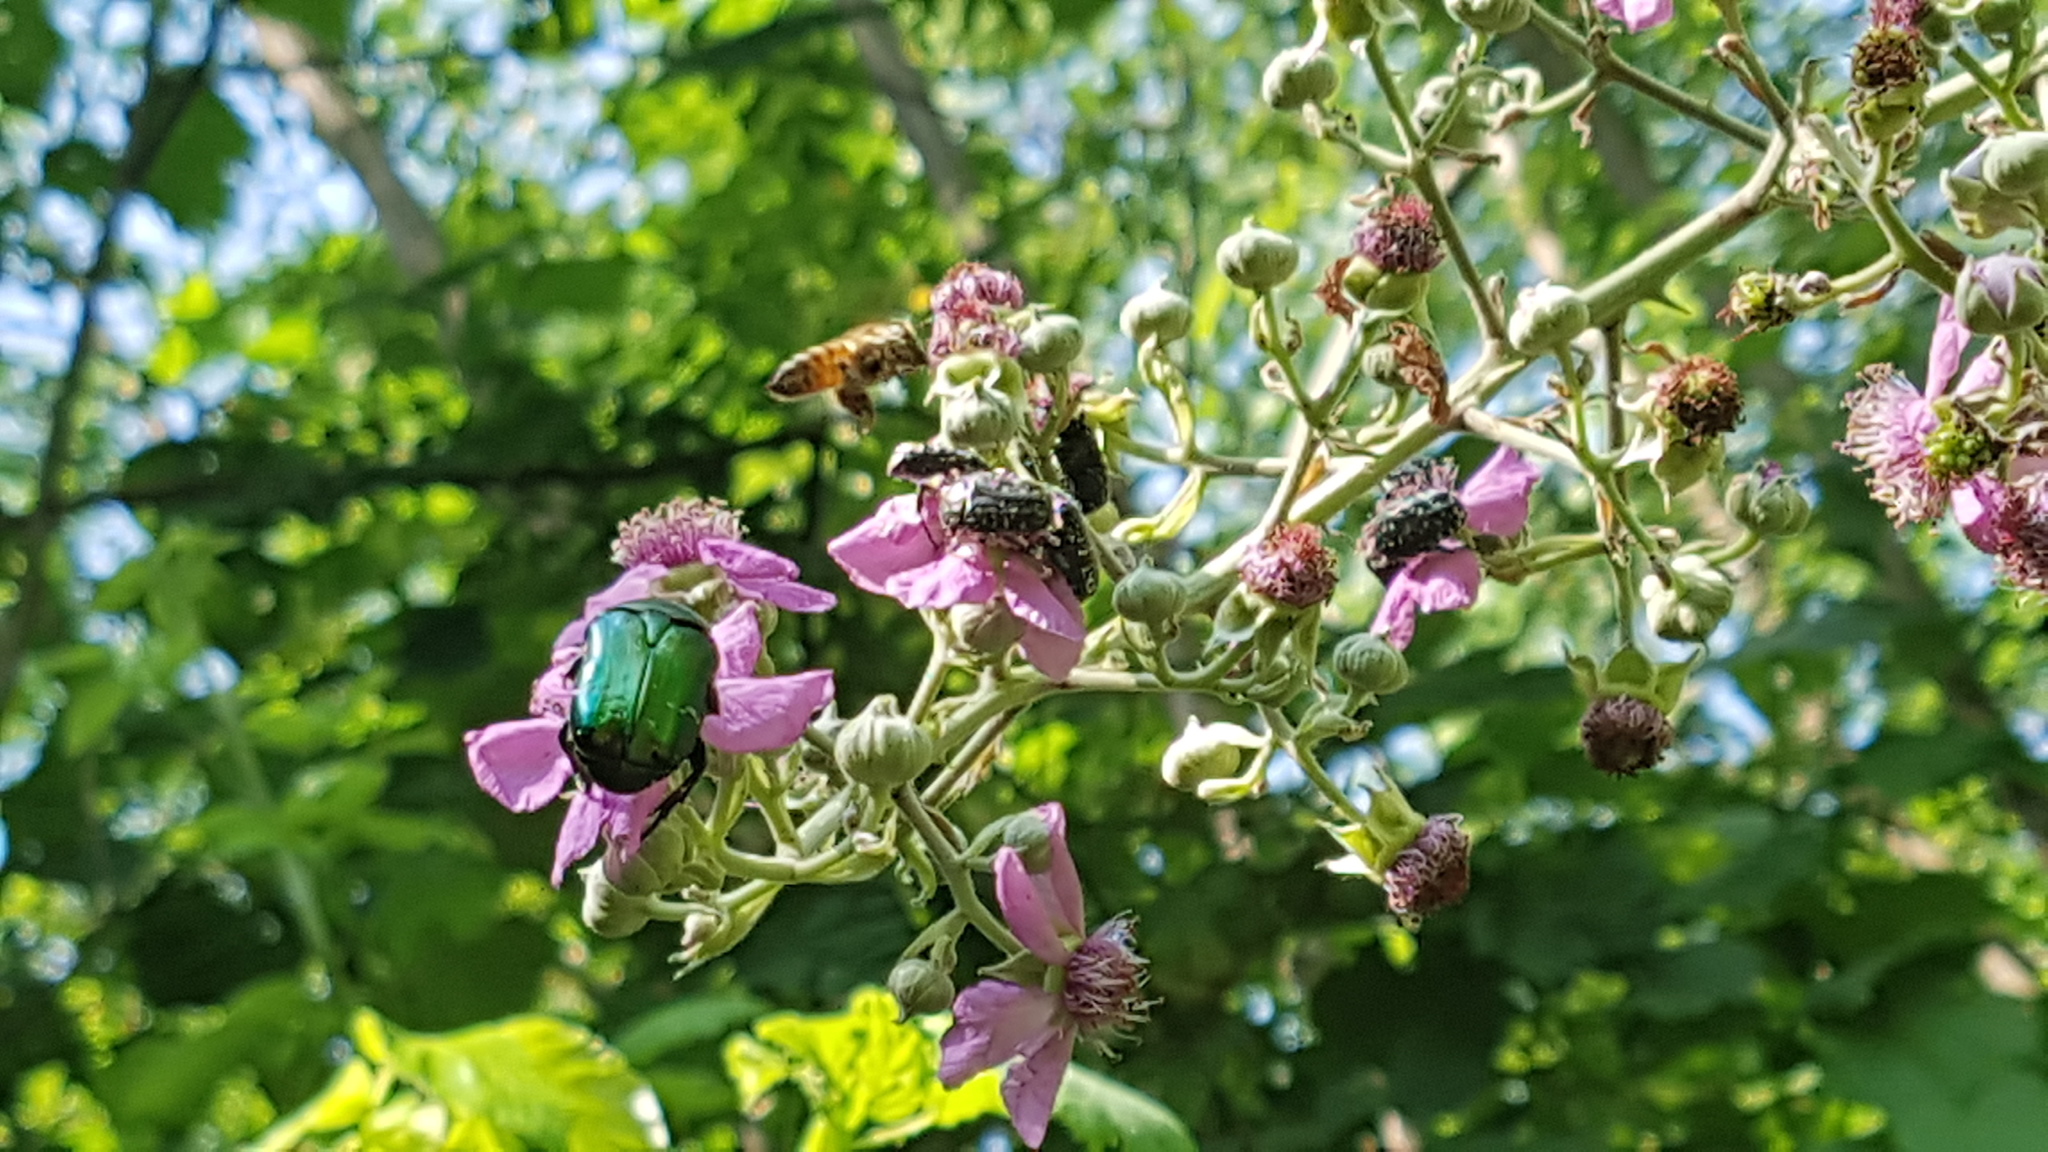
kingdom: Animalia
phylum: Arthropoda
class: Insecta
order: Coleoptera
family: Scarabaeidae
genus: Cetonia
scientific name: Cetonia aurata
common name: Rose chafer
